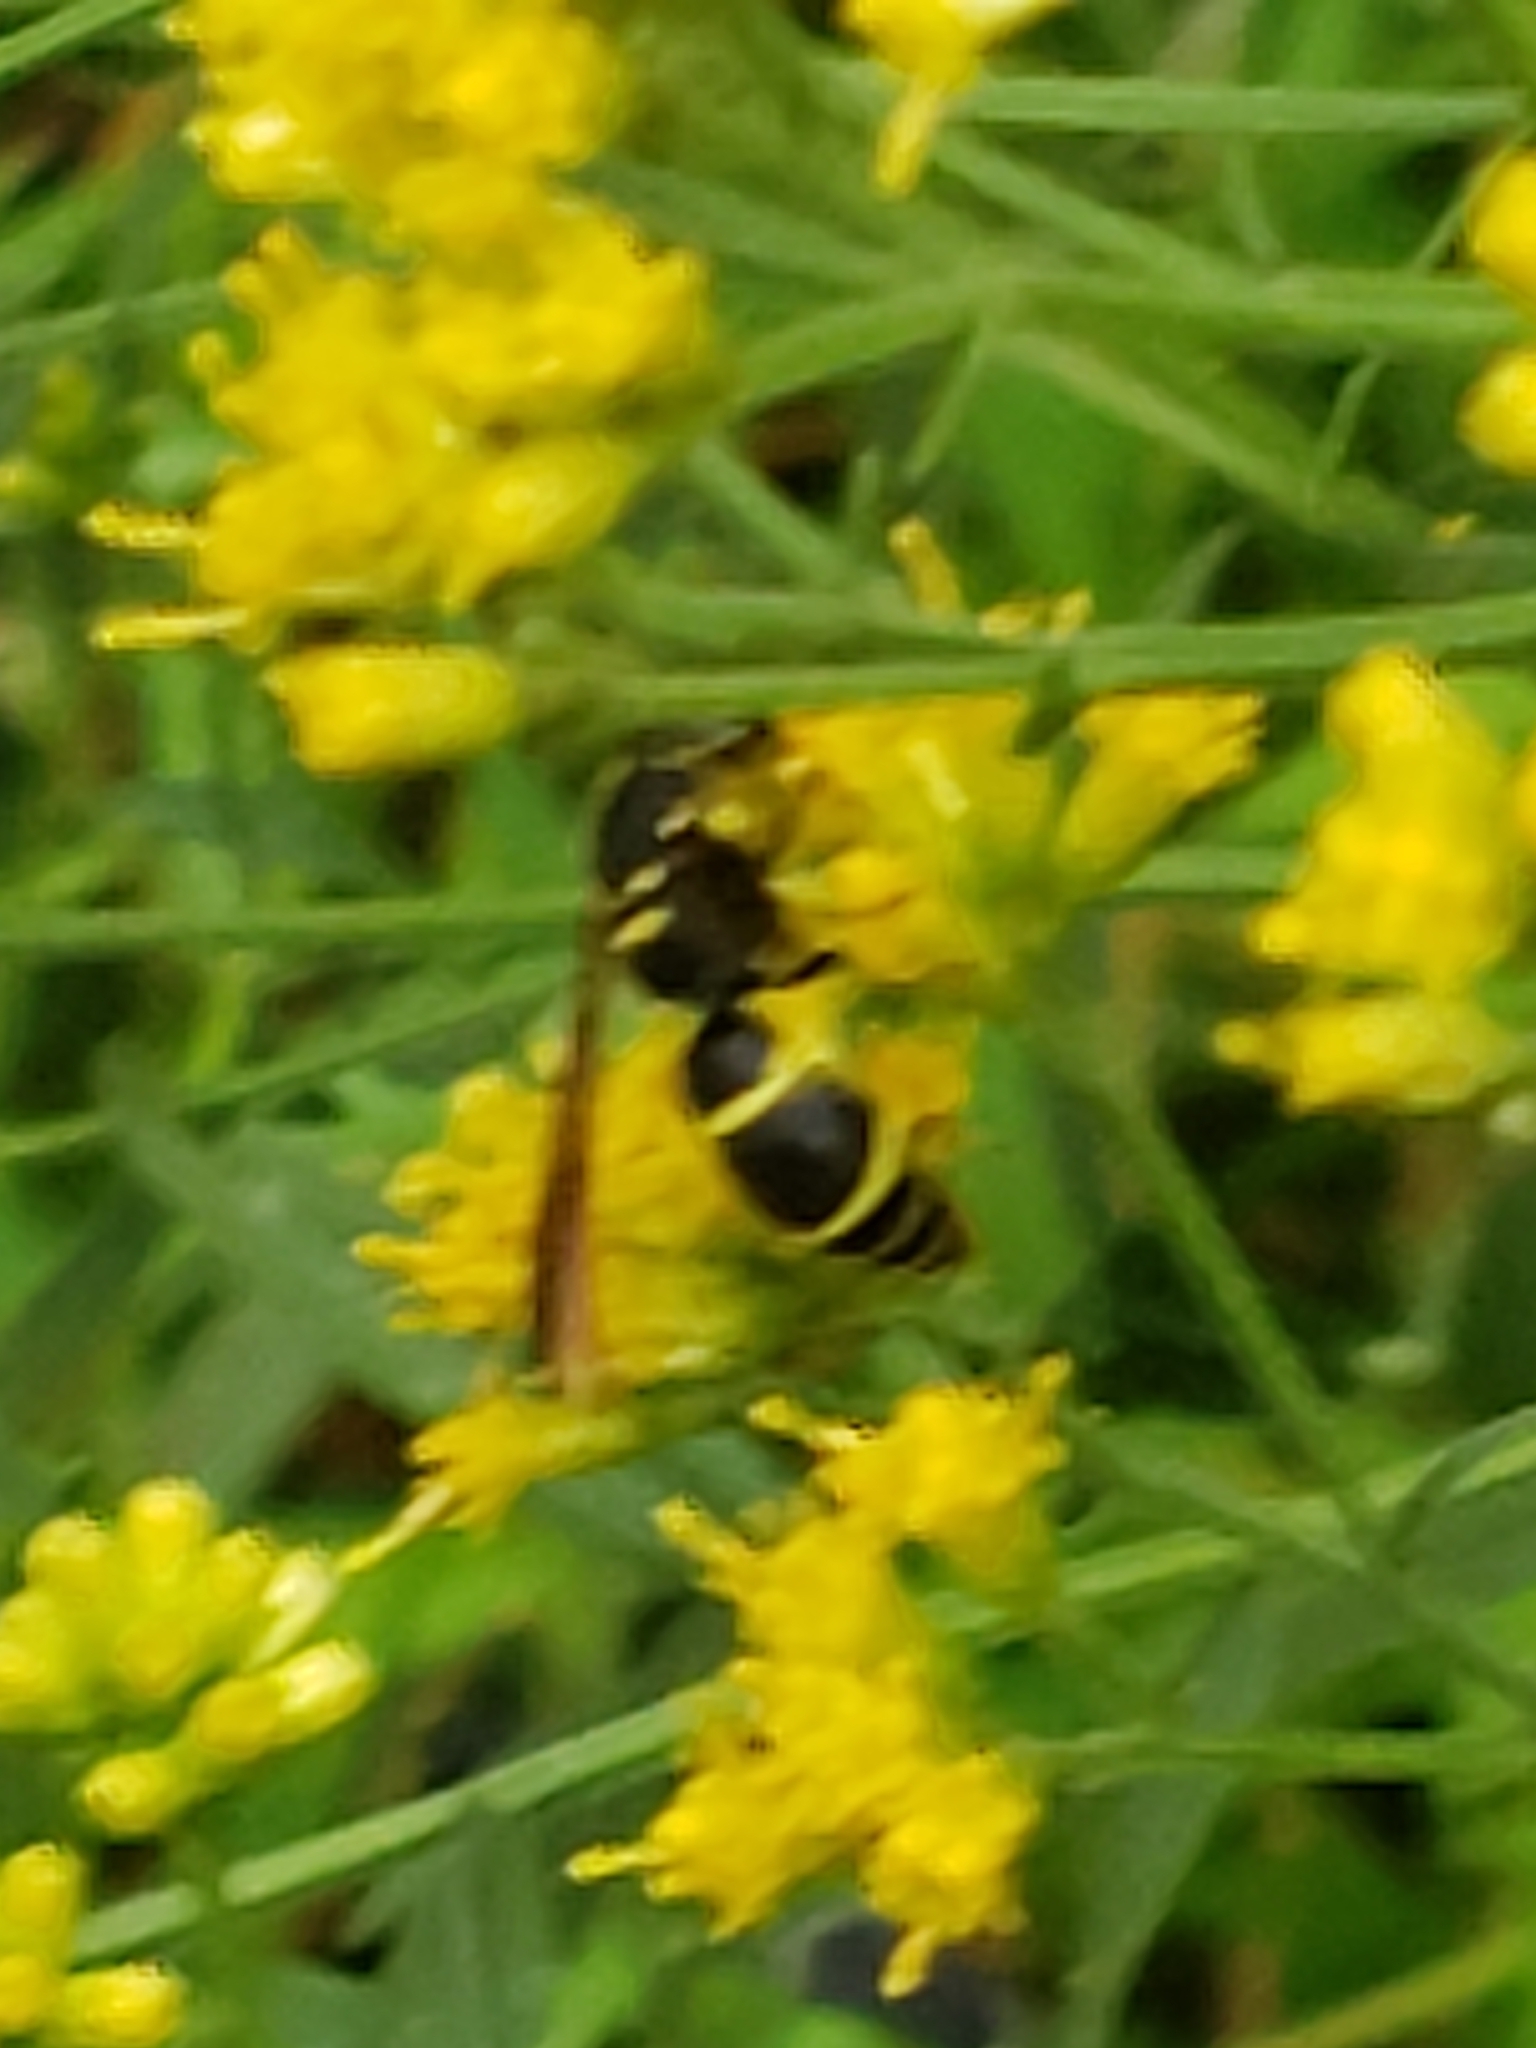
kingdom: Animalia
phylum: Arthropoda
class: Insecta
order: Hymenoptera
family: Vespidae
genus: Ancistrocerus
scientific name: Ancistrocerus adiabatus
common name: Bramble mason wasp
